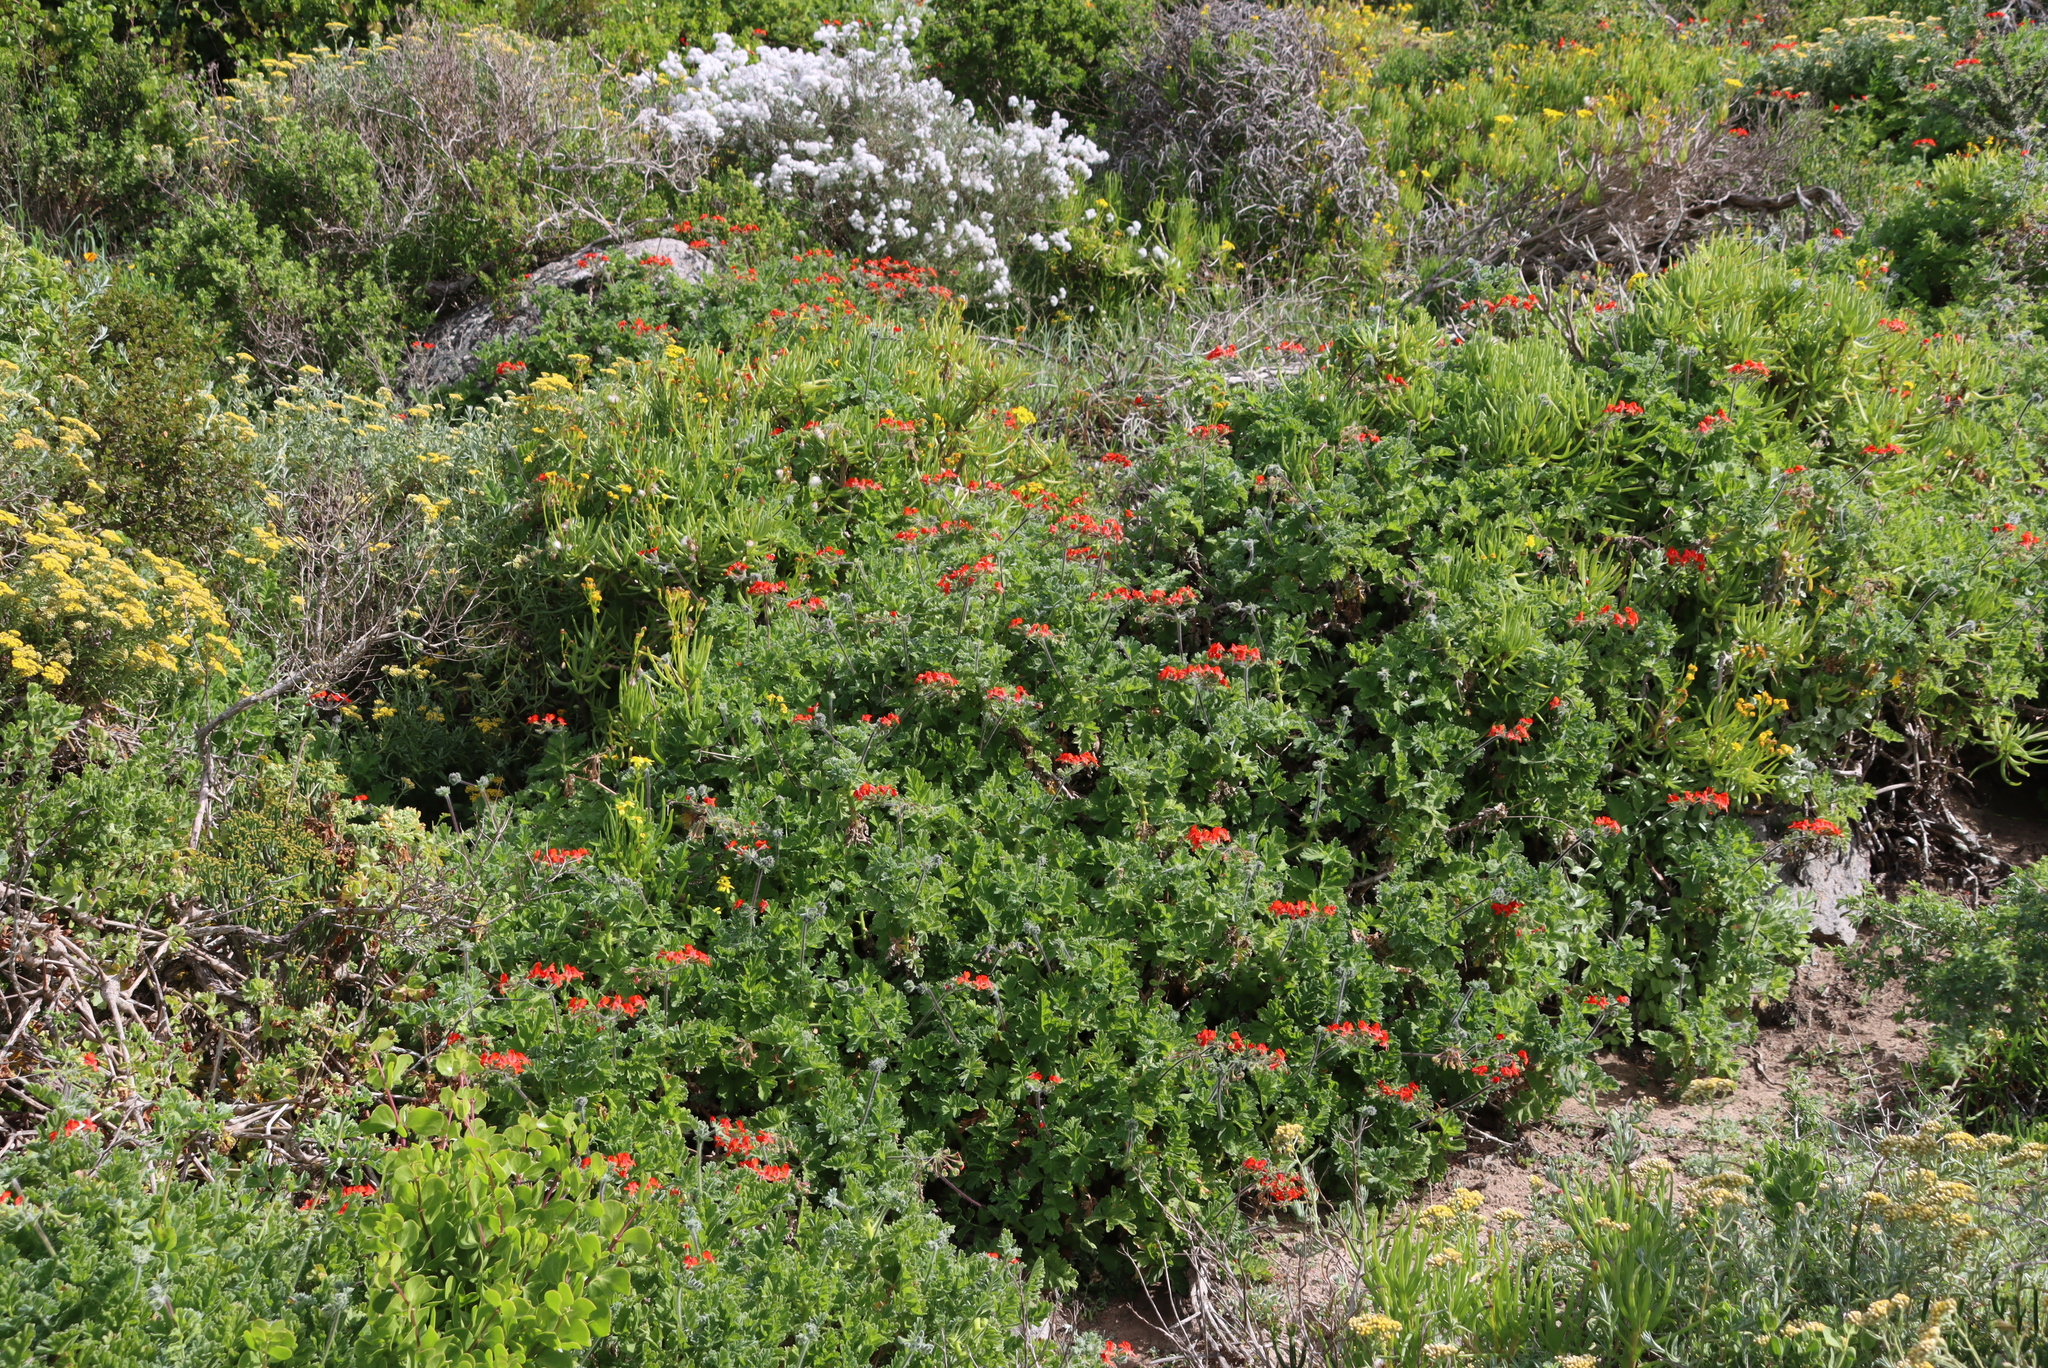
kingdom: Plantae
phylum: Tracheophyta
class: Magnoliopsida
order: Geraniales
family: Geraniaceae
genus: Pelargonium
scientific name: Pelargonium fulgidum
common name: Celandine-leaf pelargonium
